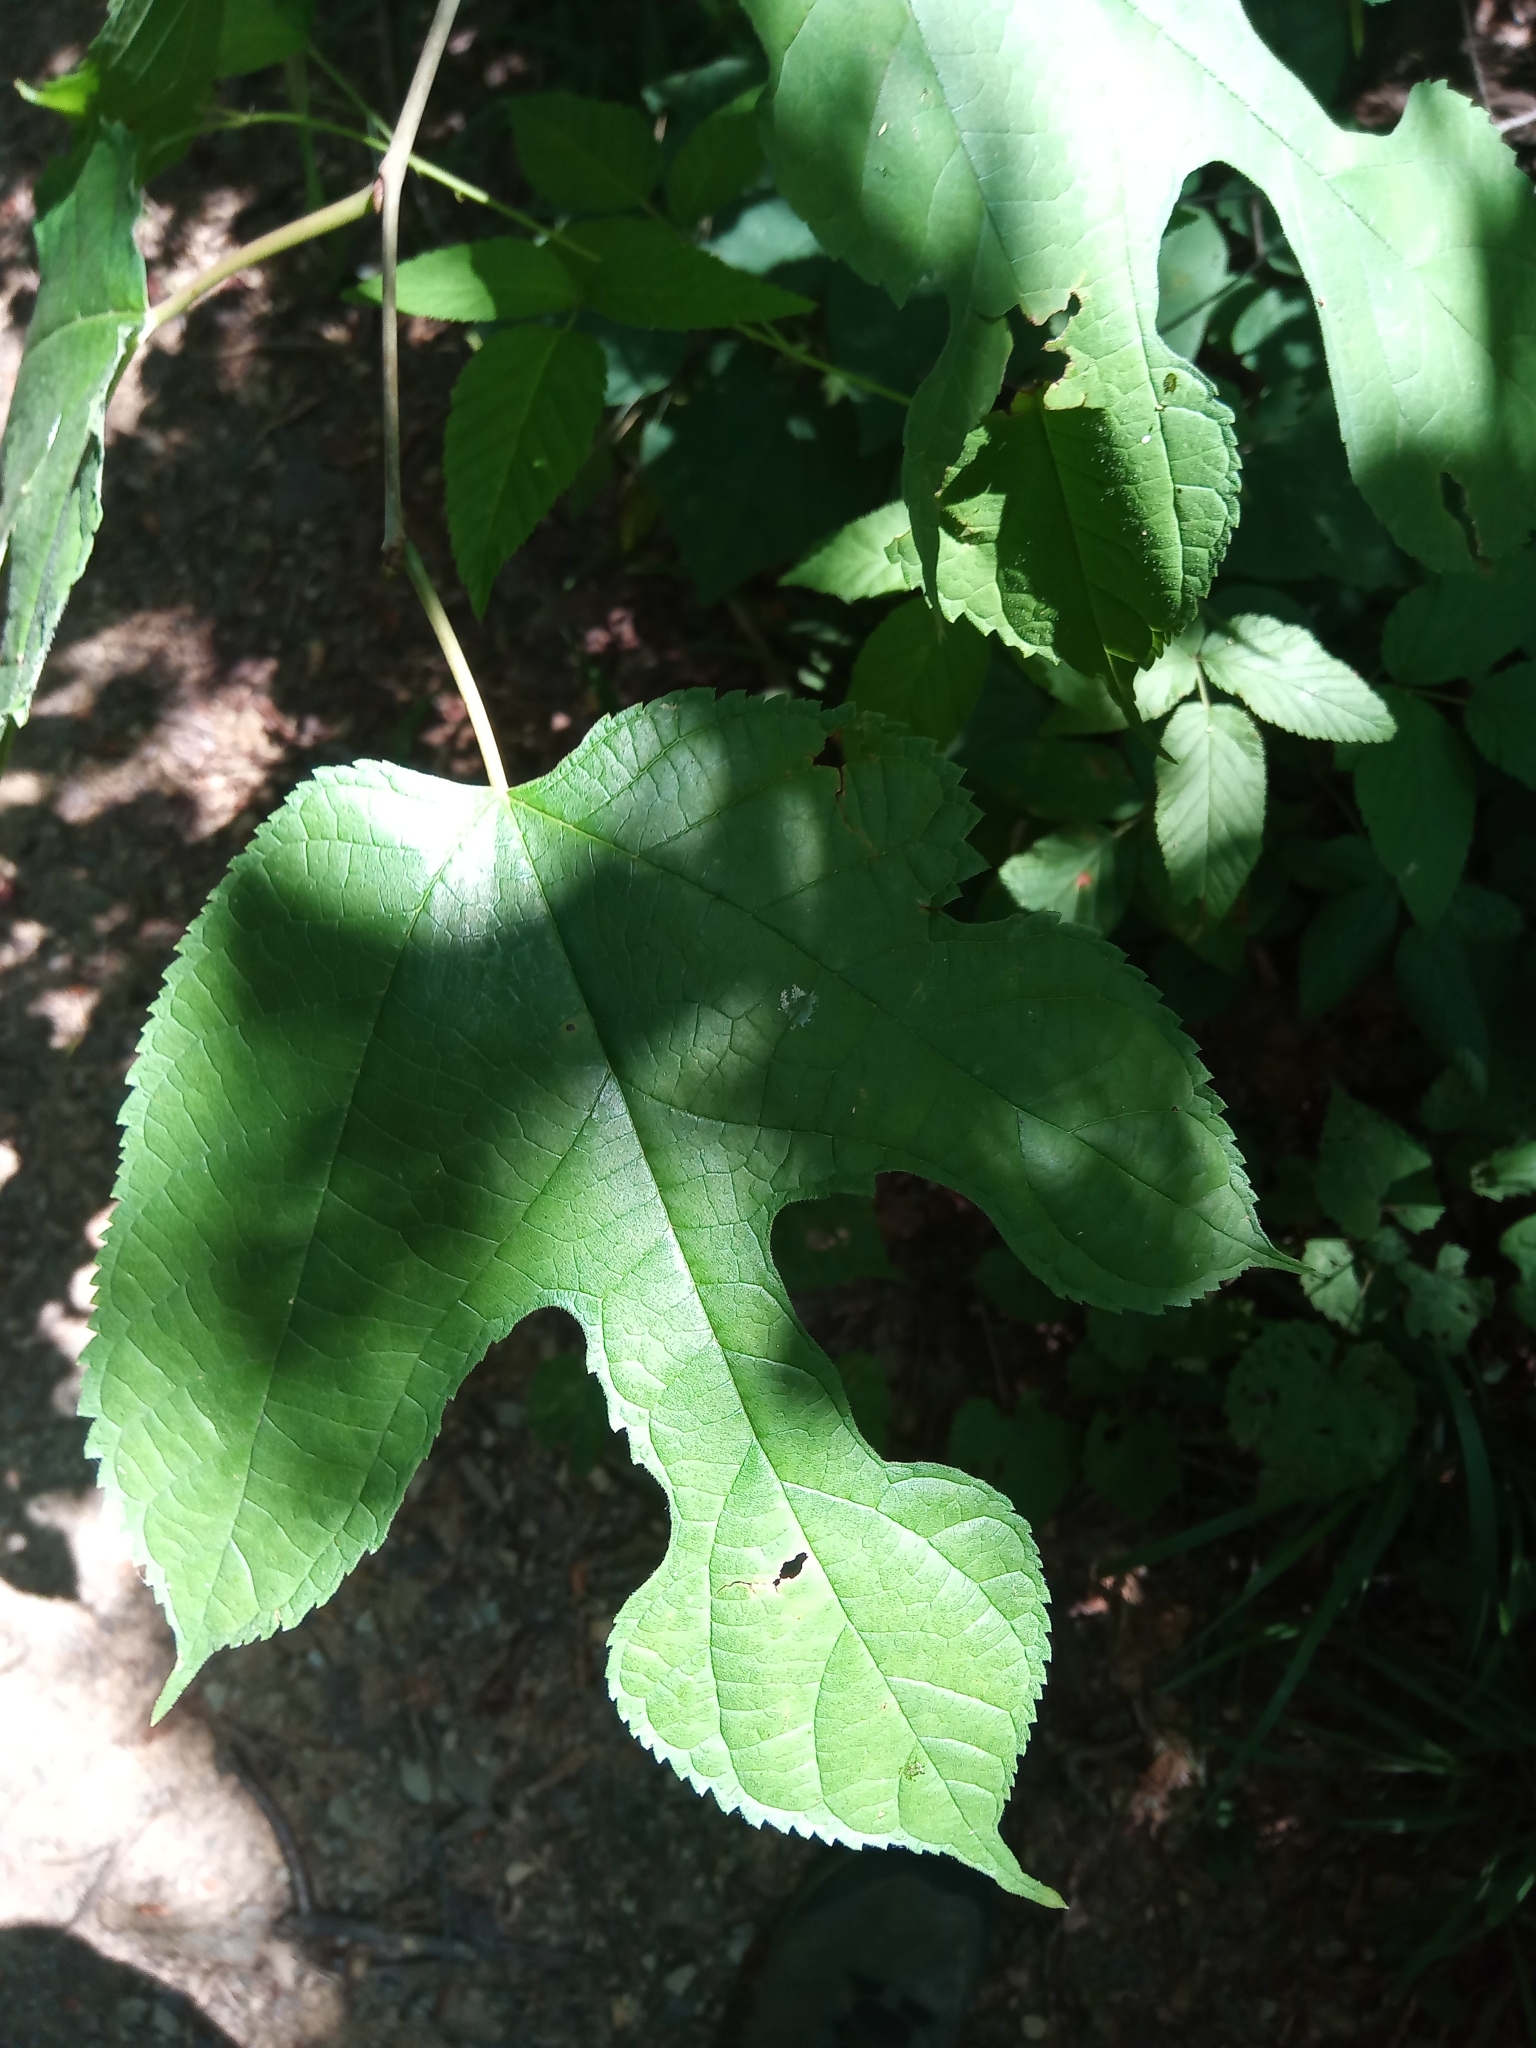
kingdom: Plantae
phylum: Tracheophyta
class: Magnoliopsida
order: Rosales
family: Moraceae
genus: Morus
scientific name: Morus rubra
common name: Red mulberry
